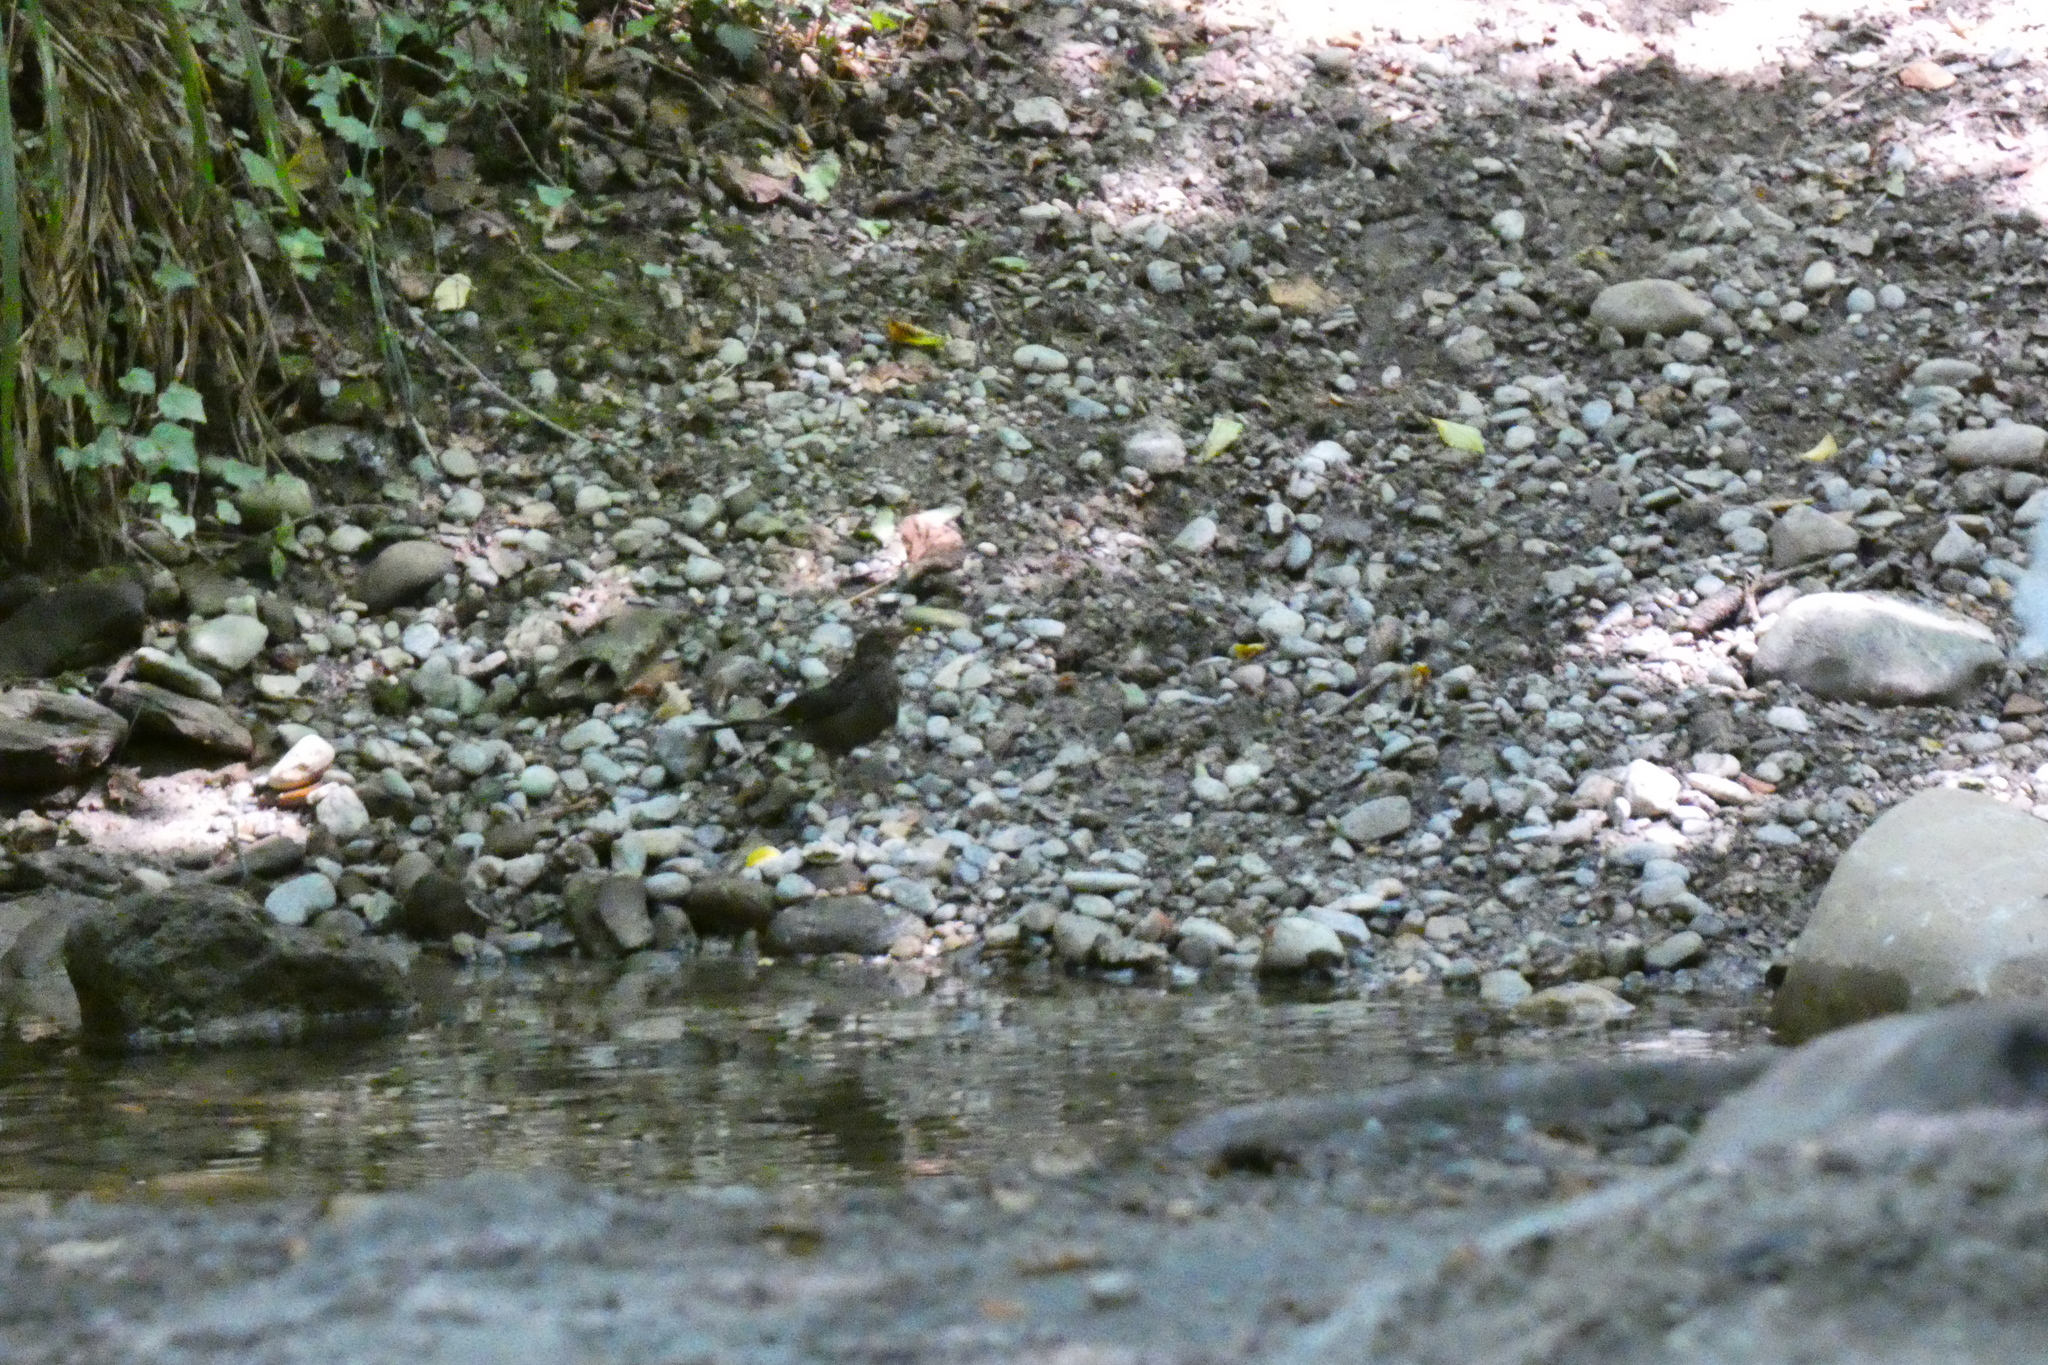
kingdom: Animalia
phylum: Chordata
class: Aves
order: Passeriformes
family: Turdidae
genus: Turdus
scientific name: Turdus merula
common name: Common blackbird
